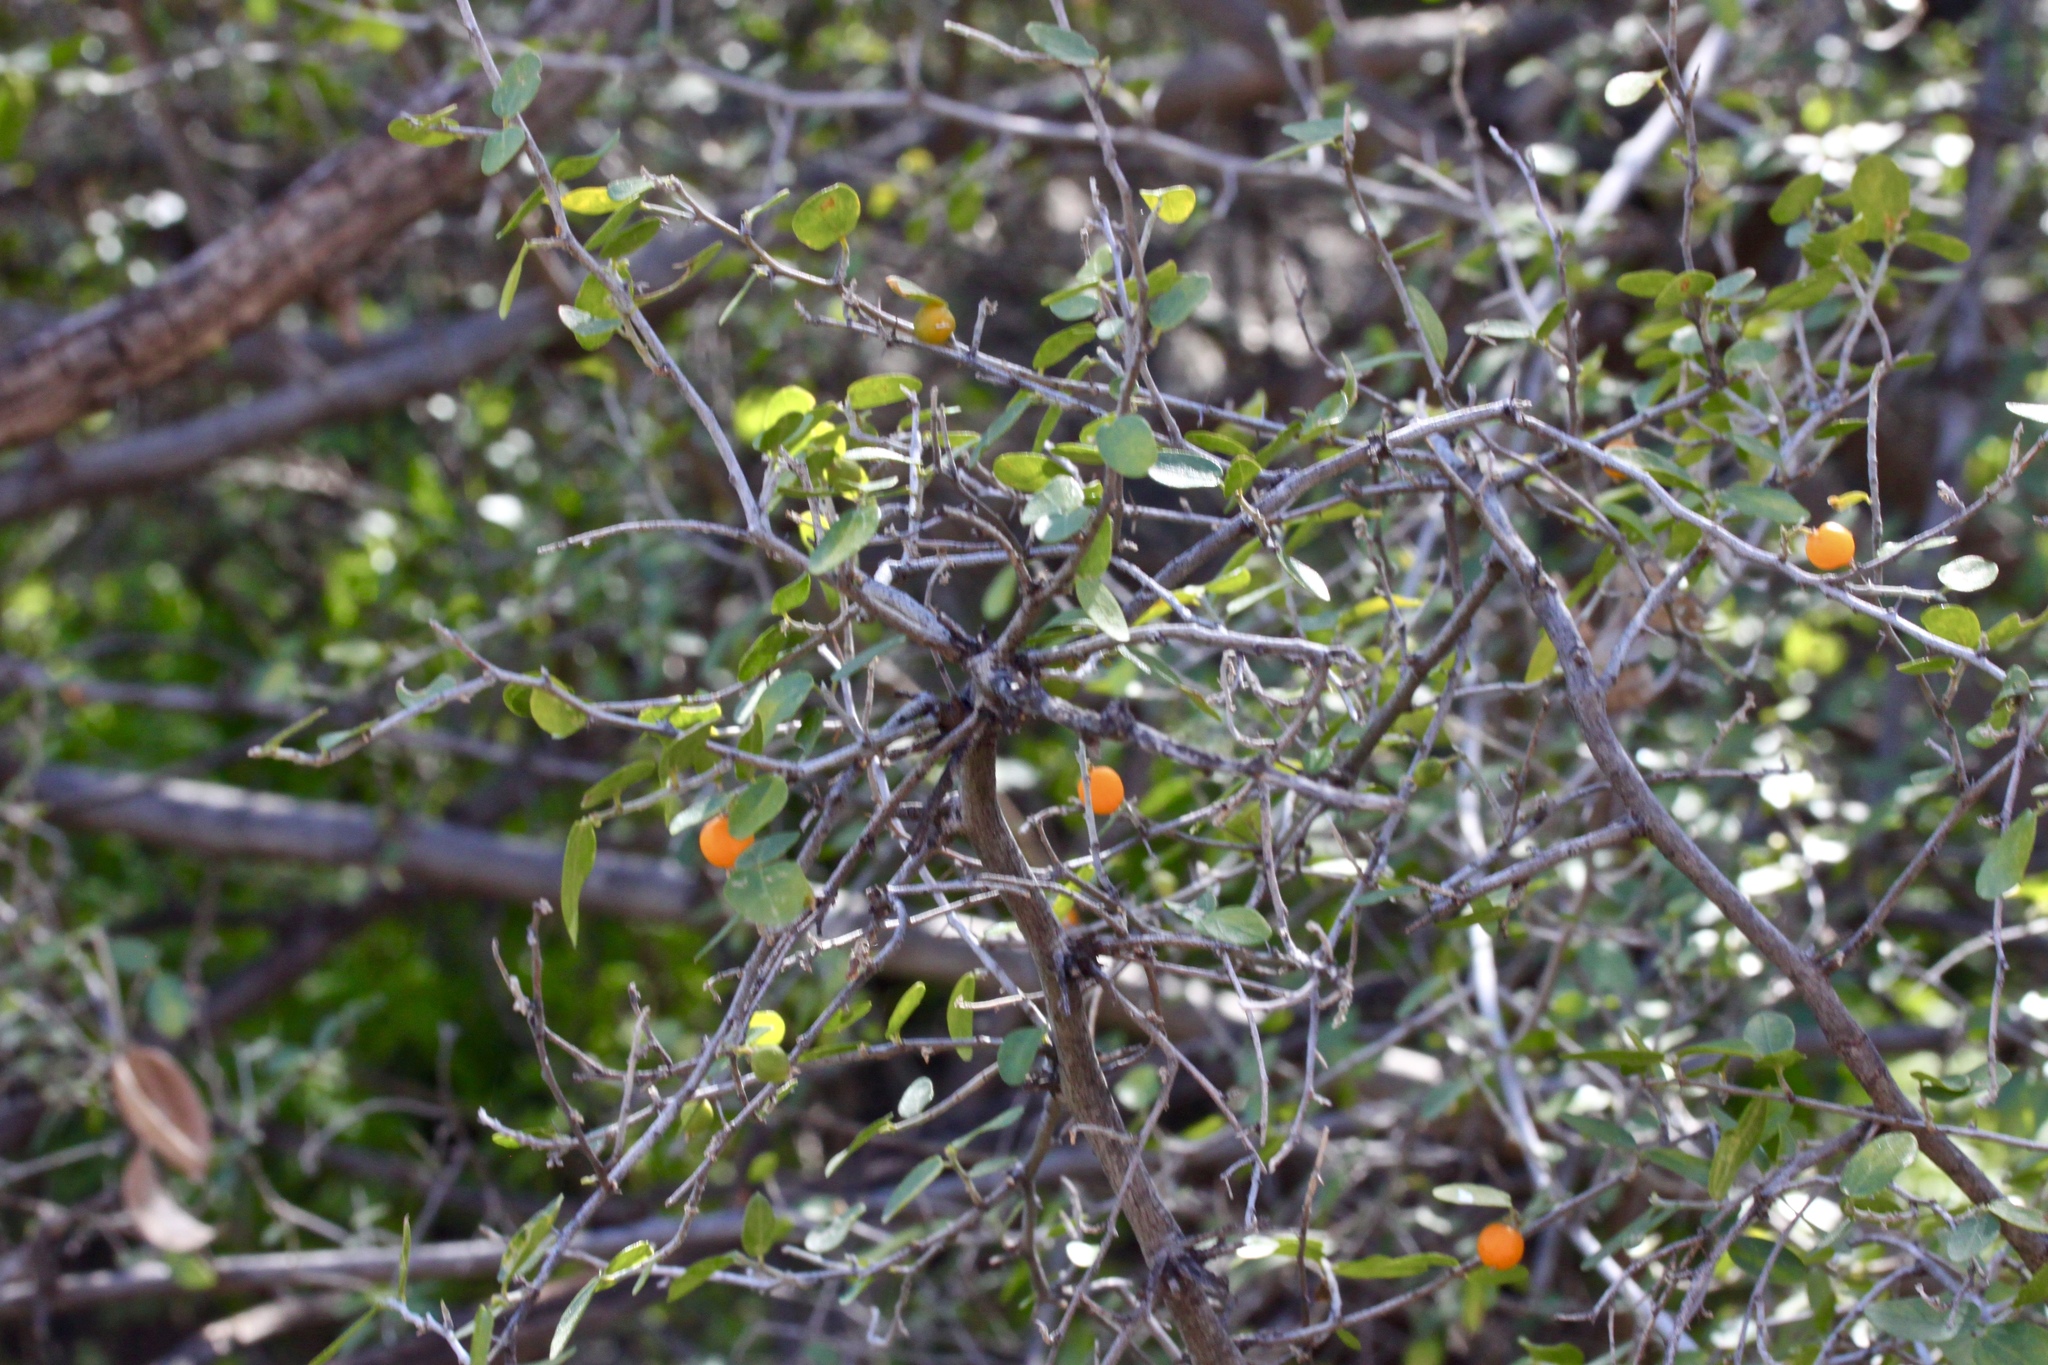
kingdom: Plantae
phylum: Tracheophyta
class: Magnoliopsida
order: Rosales
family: Cannabaceae
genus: Celtis
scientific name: Celtis pallida
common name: Desert hackberry
